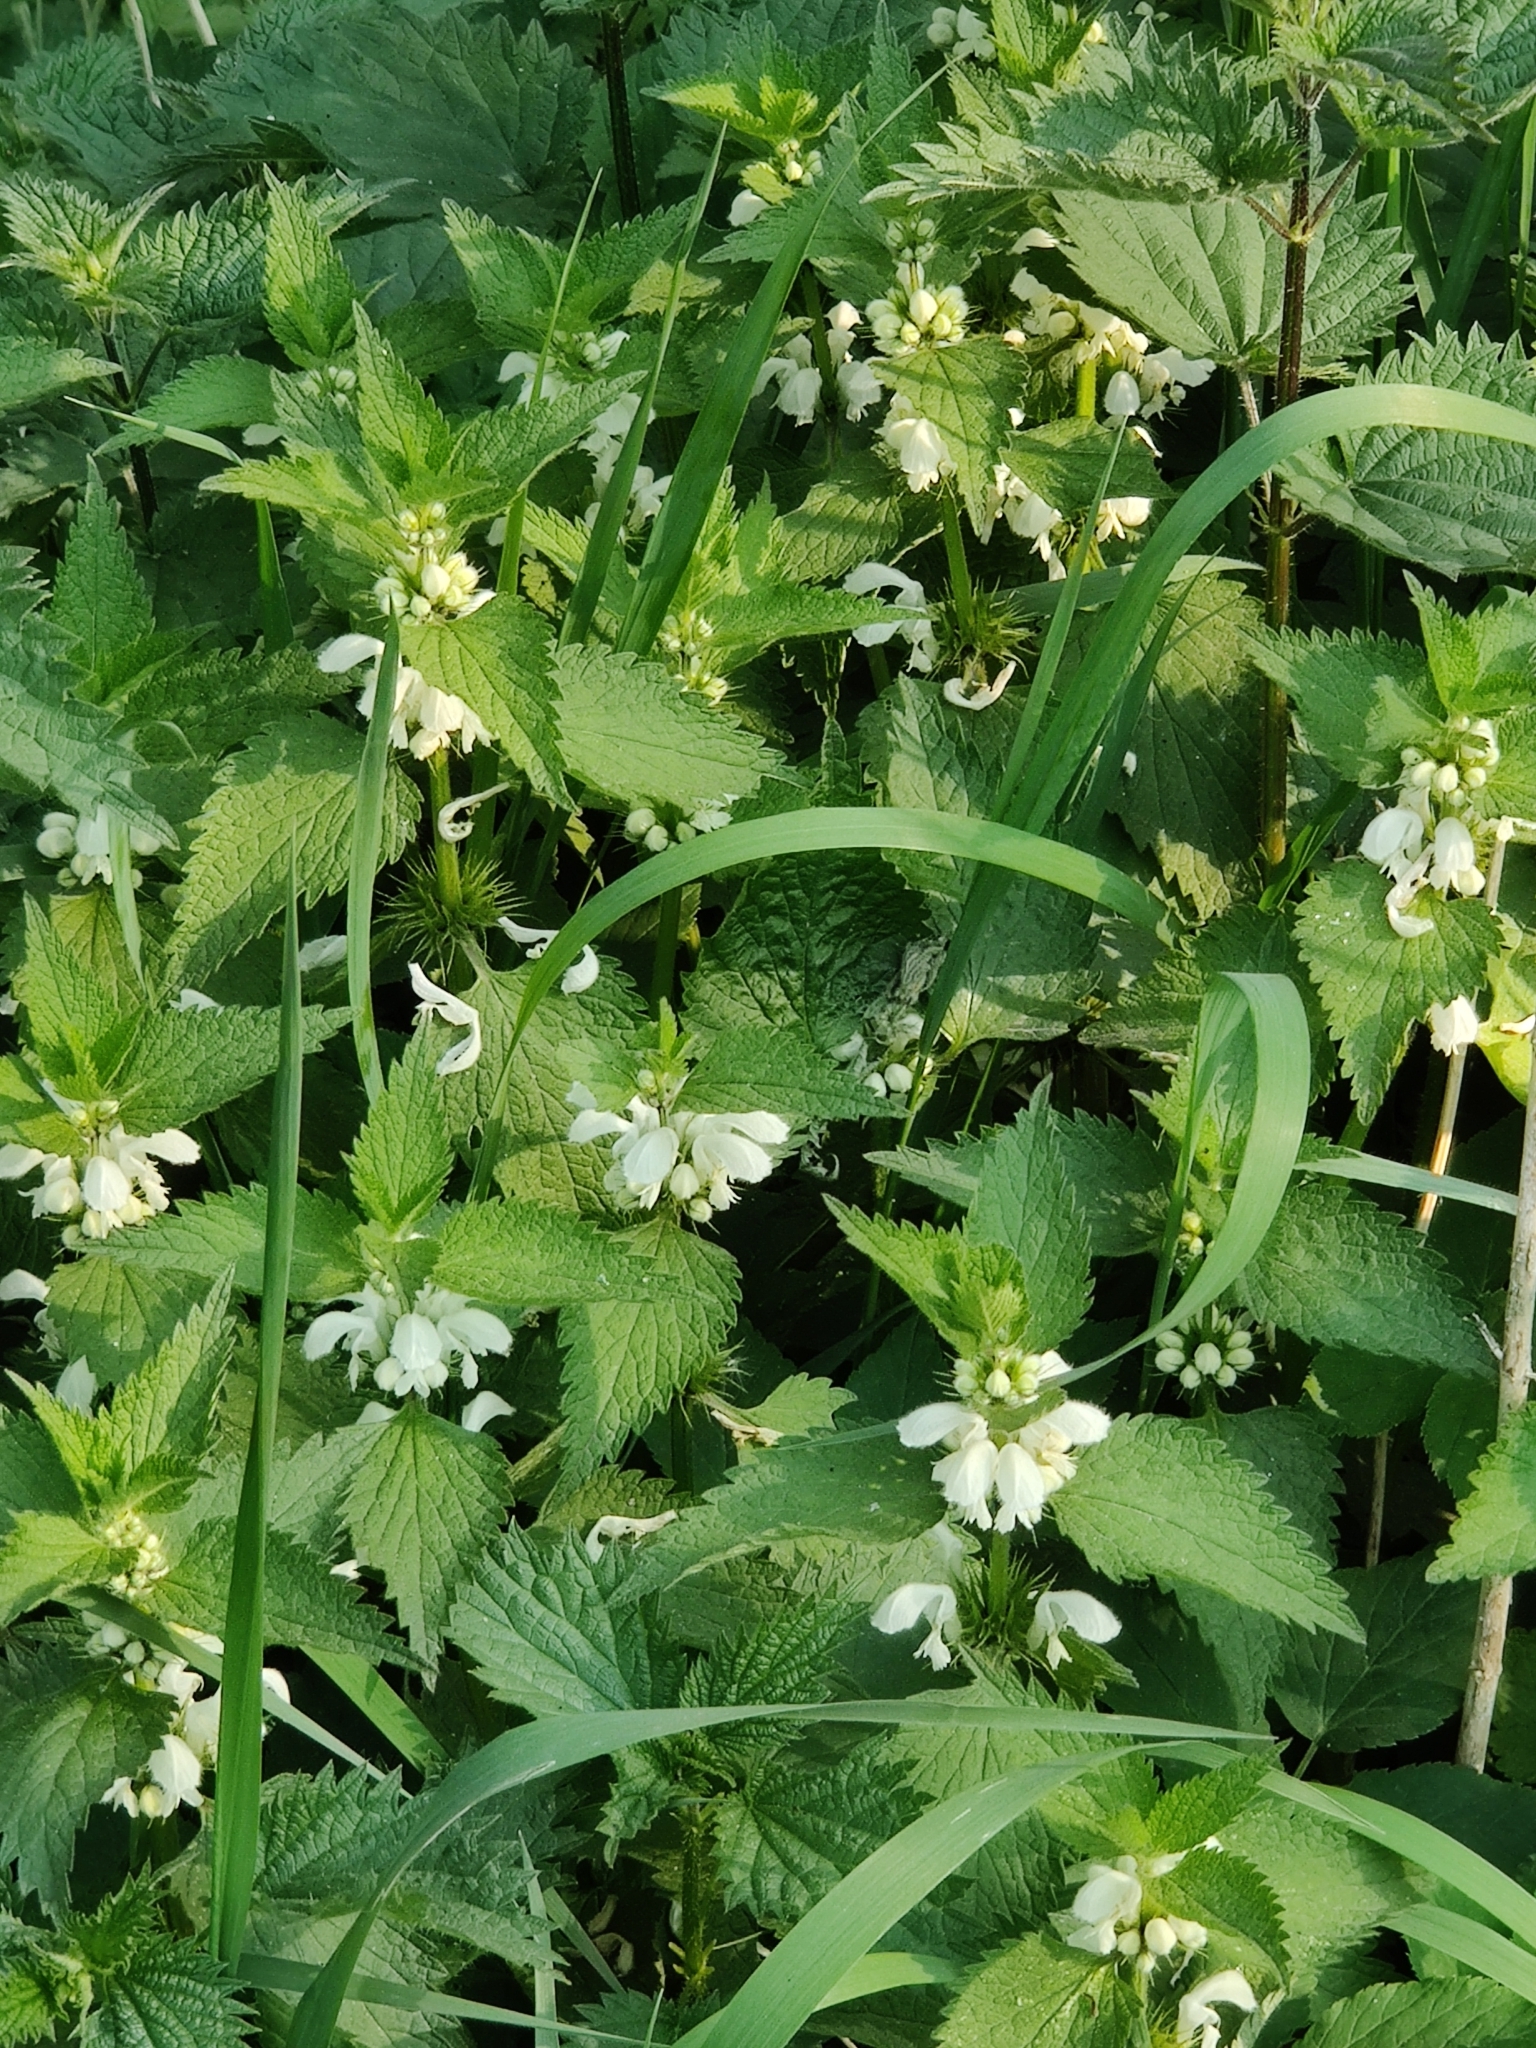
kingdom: Plantae
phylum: Tracheophyta
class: Magnoliopsida
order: Lamiales
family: Lamiaceae
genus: Lamium
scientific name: Lamium album
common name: White dead-nettle
